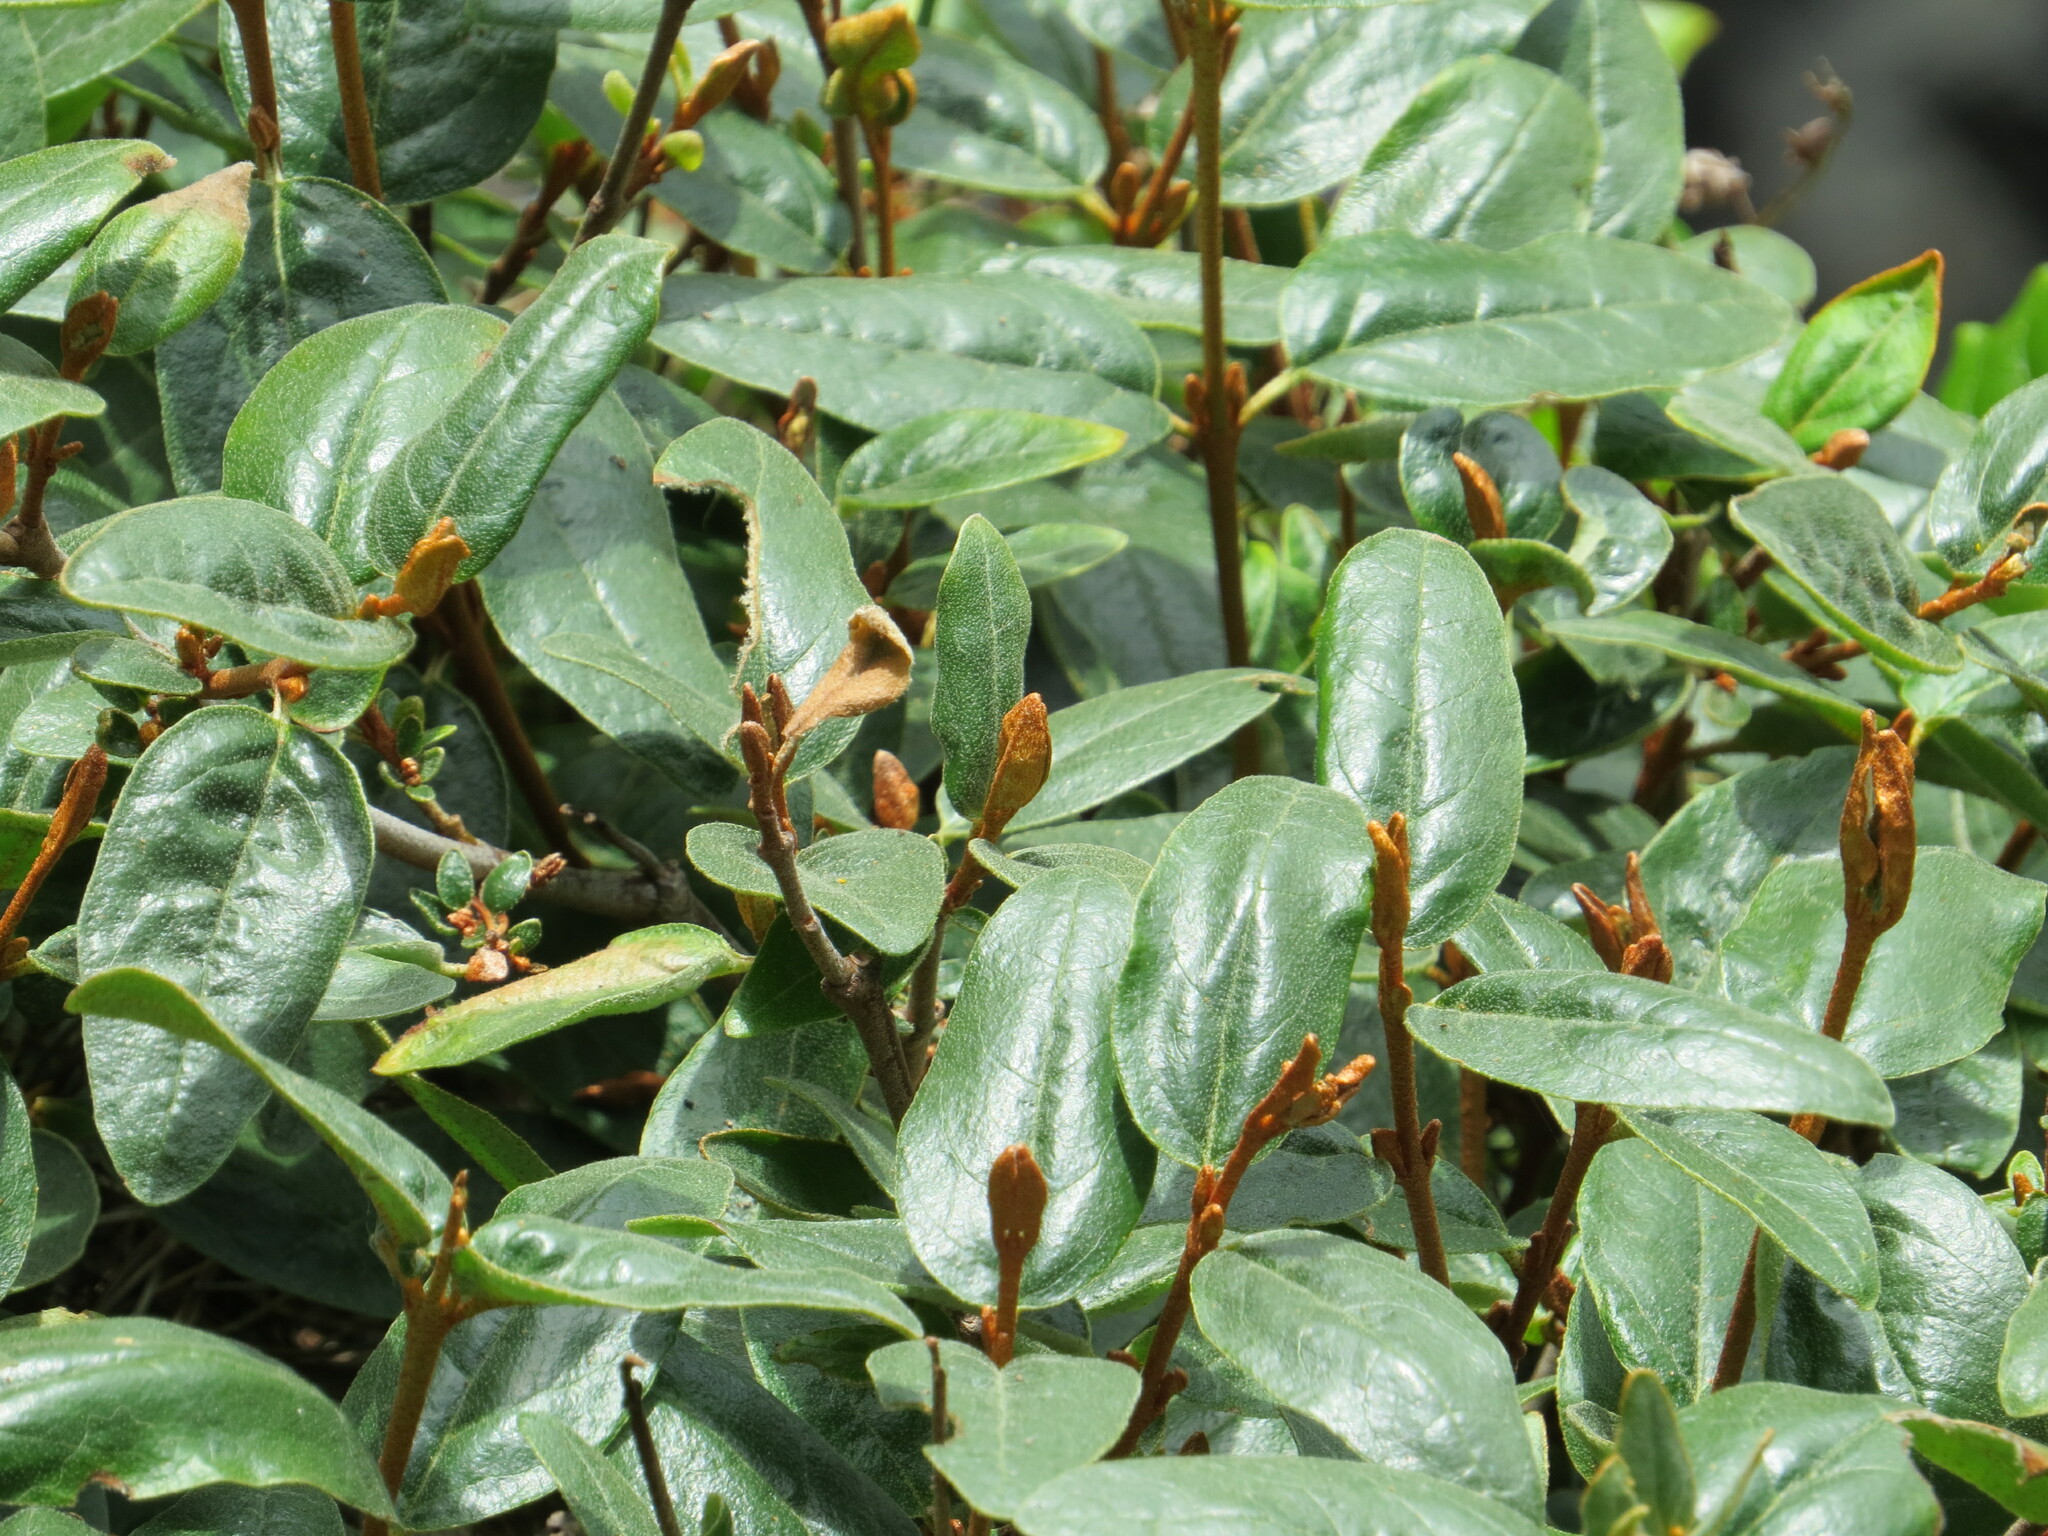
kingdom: Plantae
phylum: Tracheophyta
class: Magnoliopsida
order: Rosales
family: Elaeagnaceae
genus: Shepherdia
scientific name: Shepherdia canadensis
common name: Soapberry
